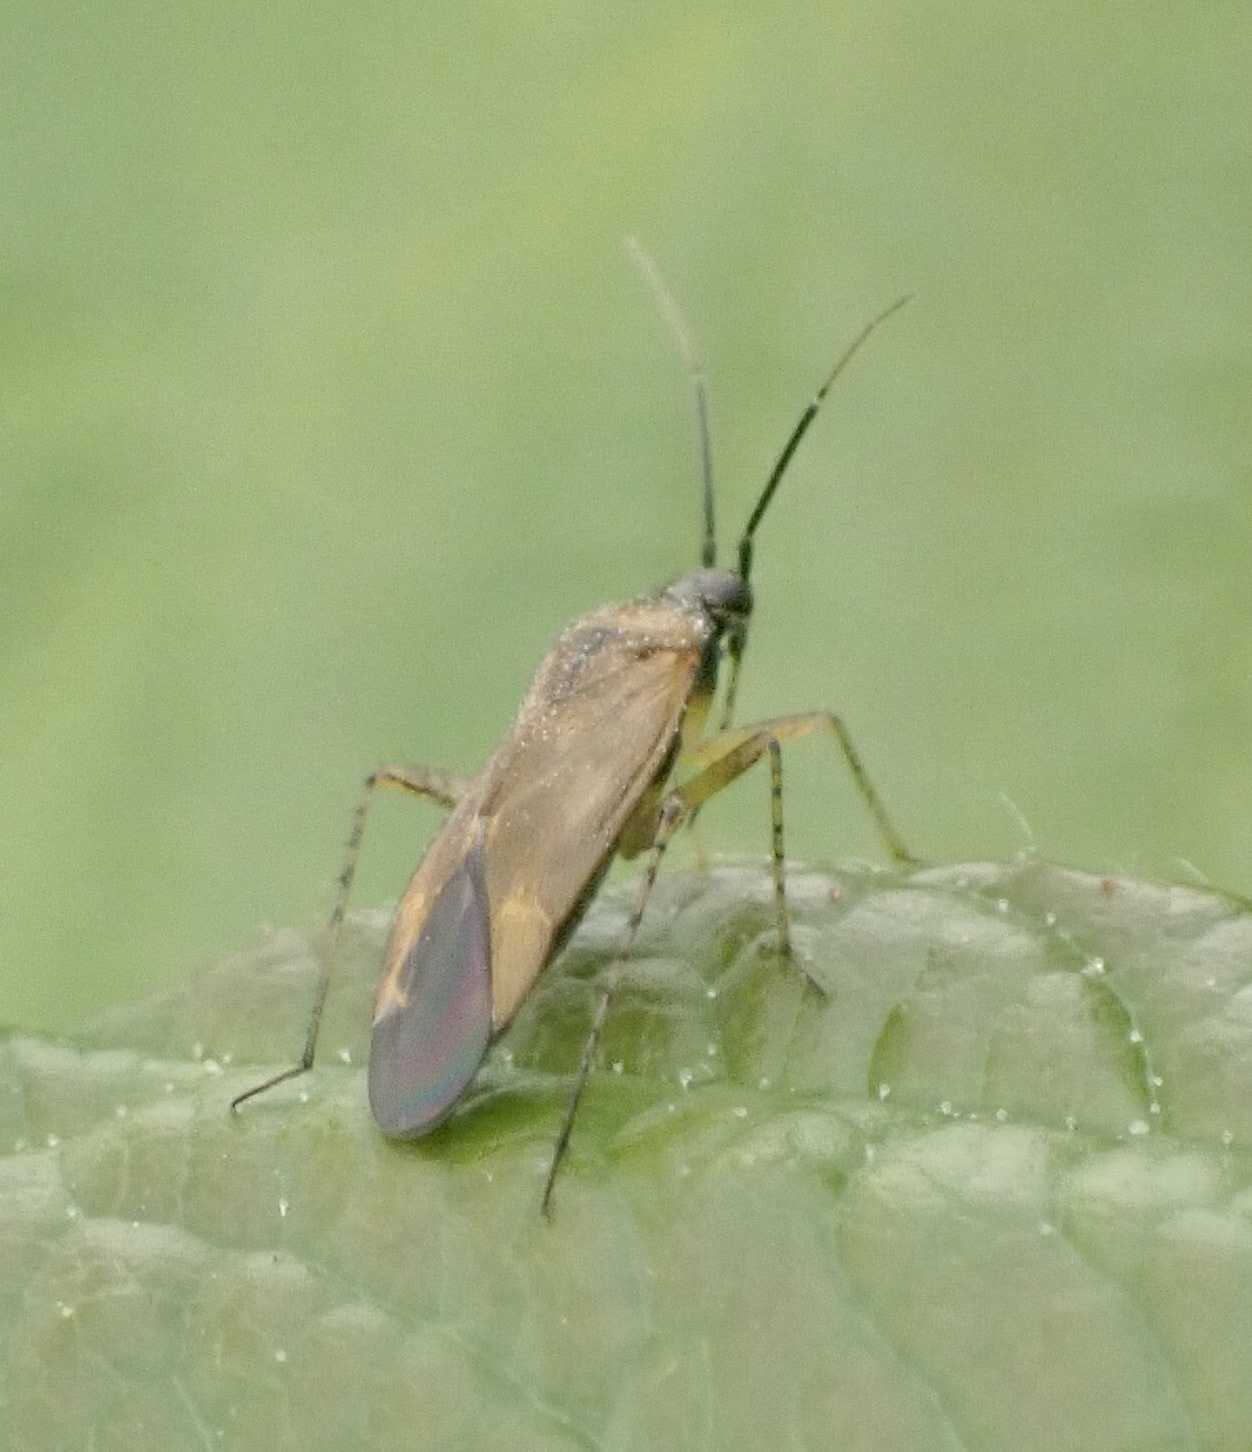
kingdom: Animalia
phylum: Arthropoda
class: Insecta
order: Hemiptera
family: Miridae
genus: Plagiognathus
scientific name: Plagiognathus arbustorum
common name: Plant bug
